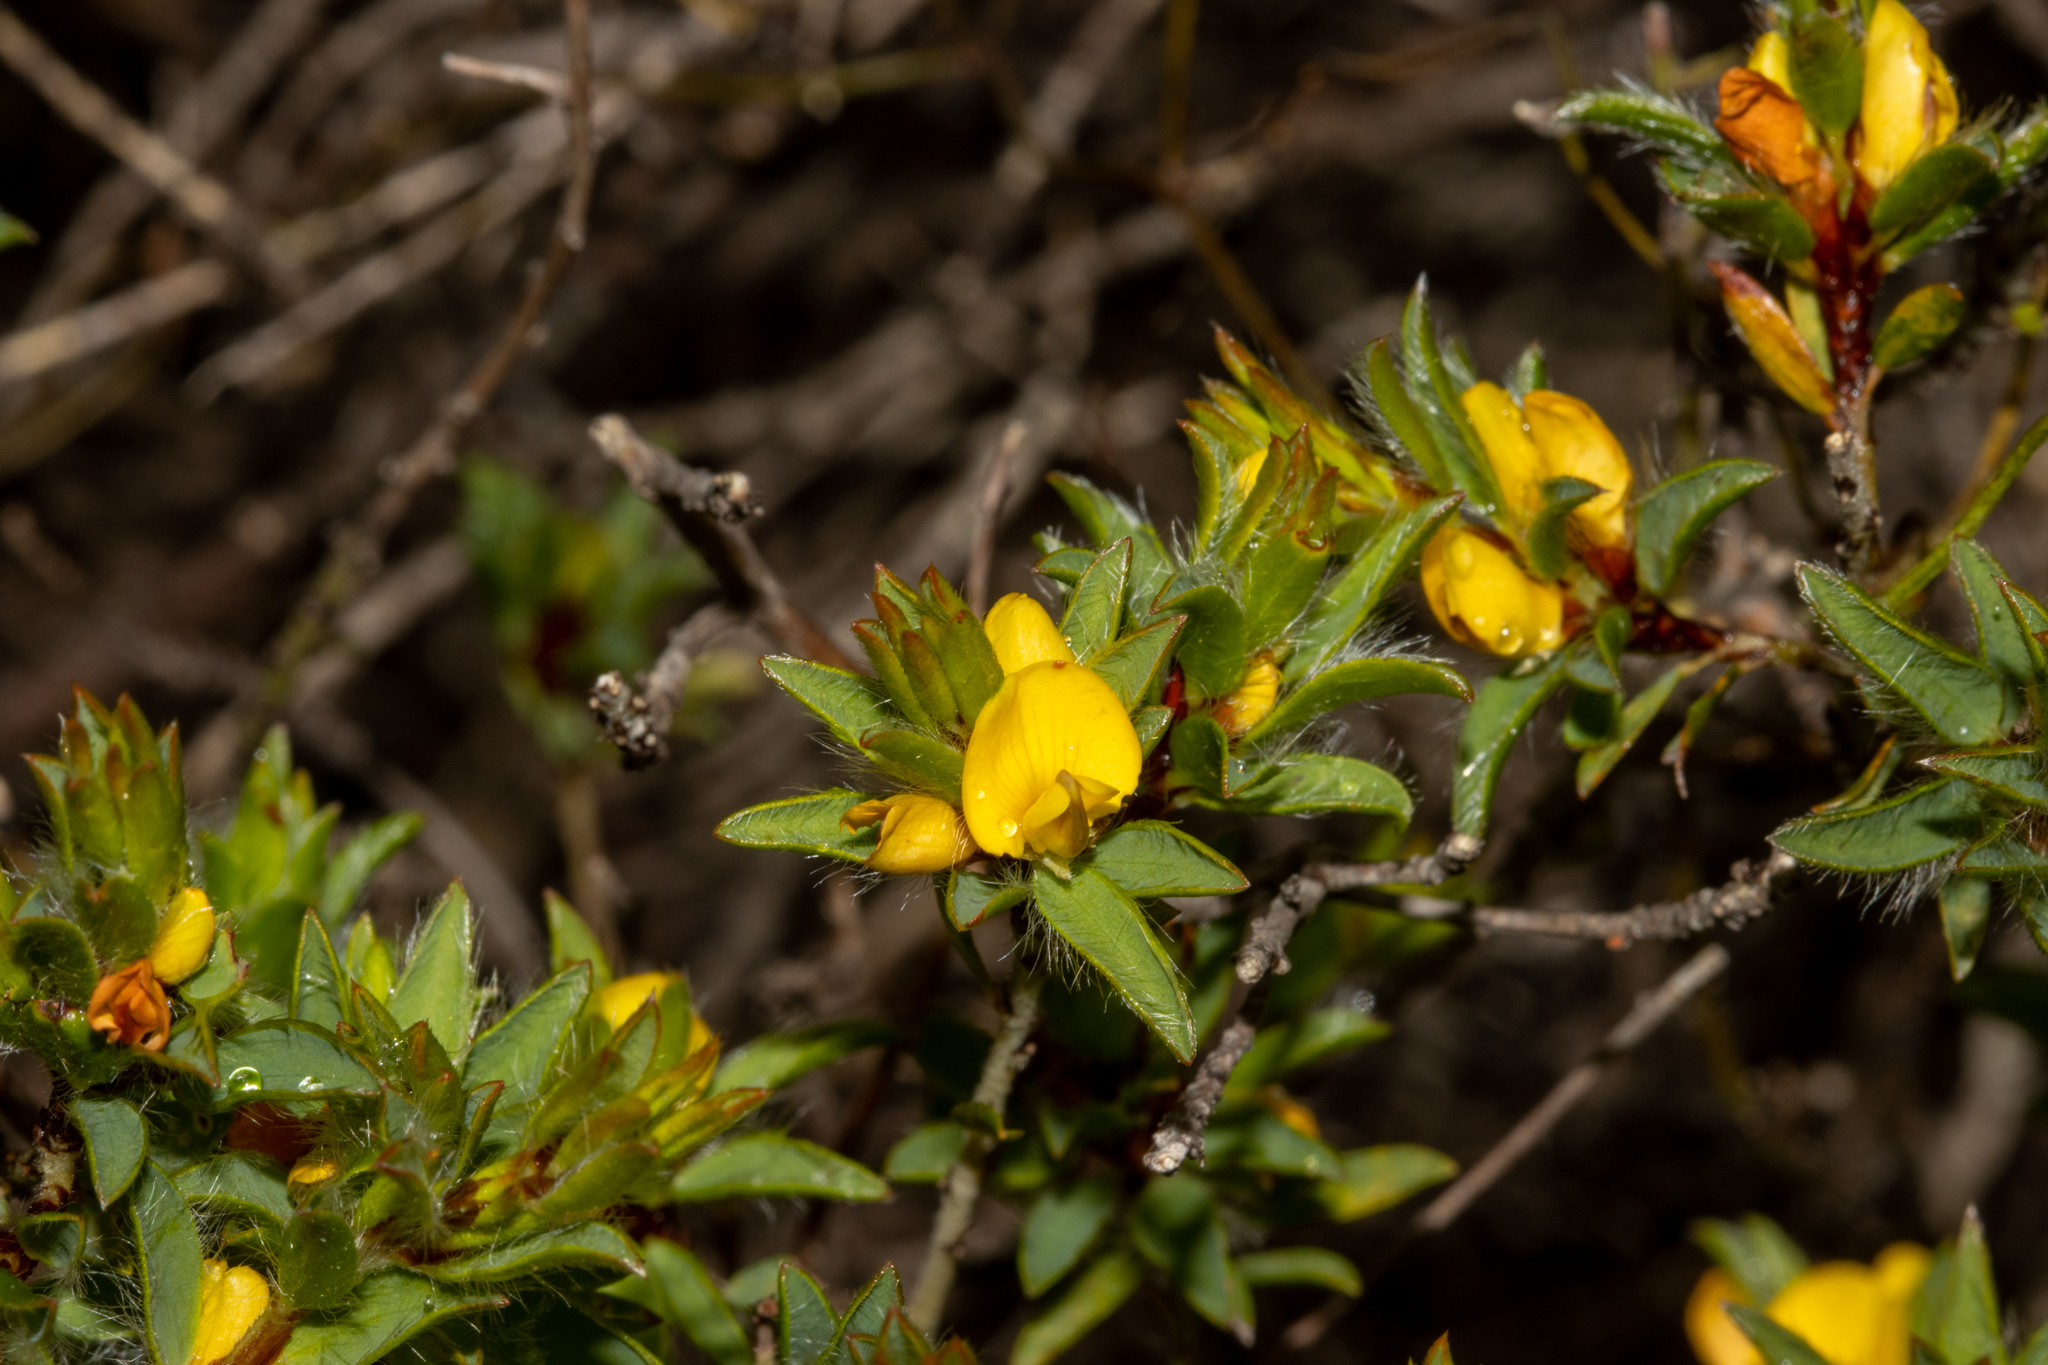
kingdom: Plantae
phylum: Tracheophyta
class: Magnoliopsida
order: Fabales
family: Fabaceae
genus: Pultenaea
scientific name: Pultenaea involucrata
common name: Mount lofty bush-pea
